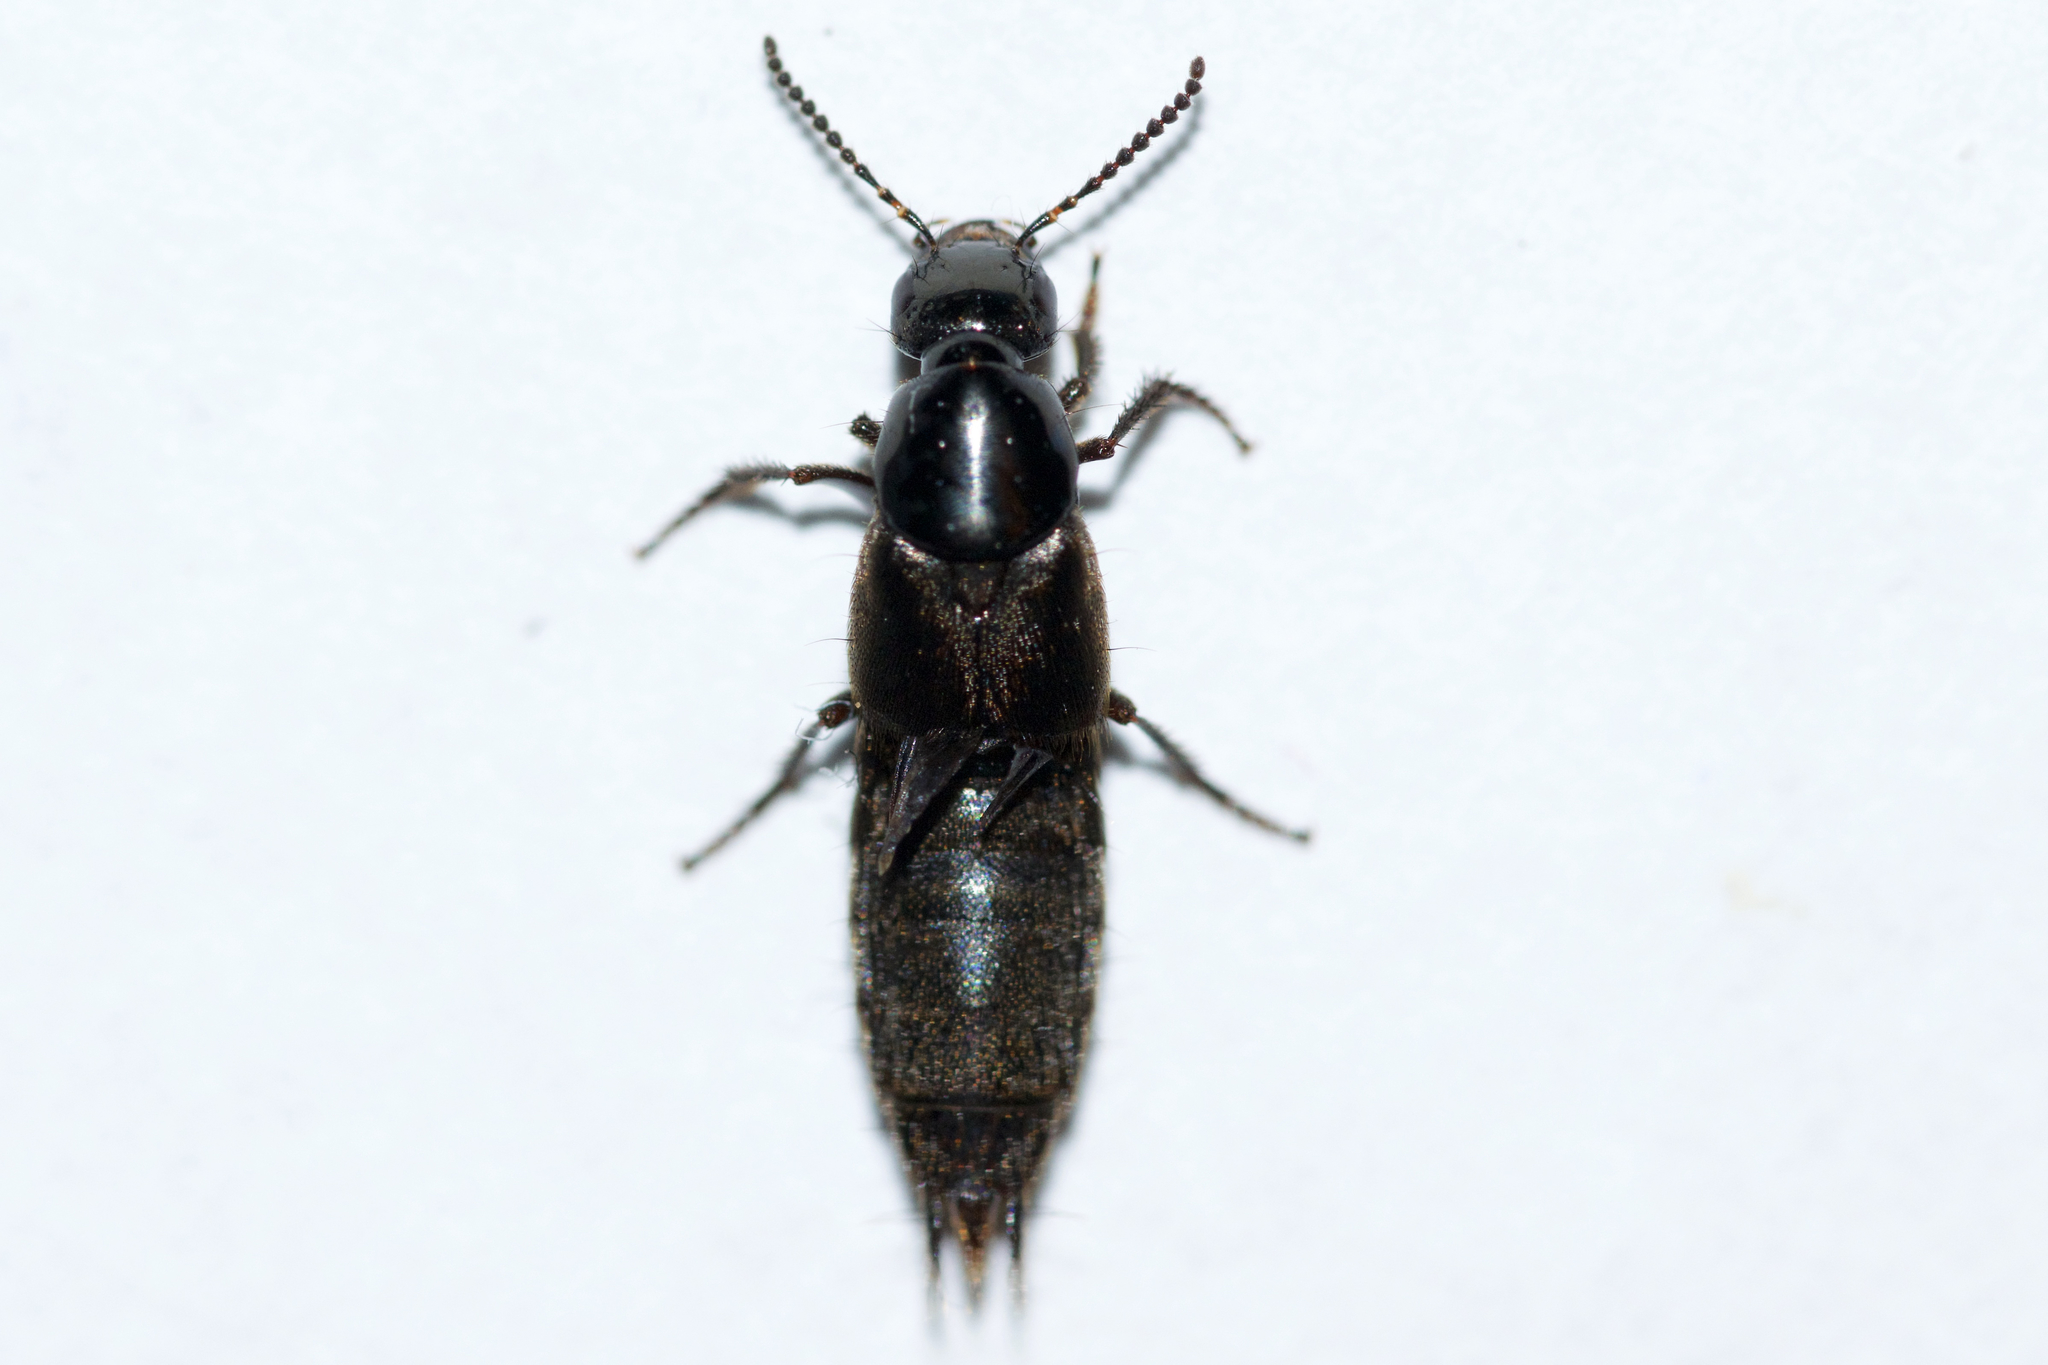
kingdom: Animalia
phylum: Arthropoda
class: Insecta
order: Coleoptera
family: Staphylinidae
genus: Philonthus
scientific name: Philonthus politus
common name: Rove beetle
